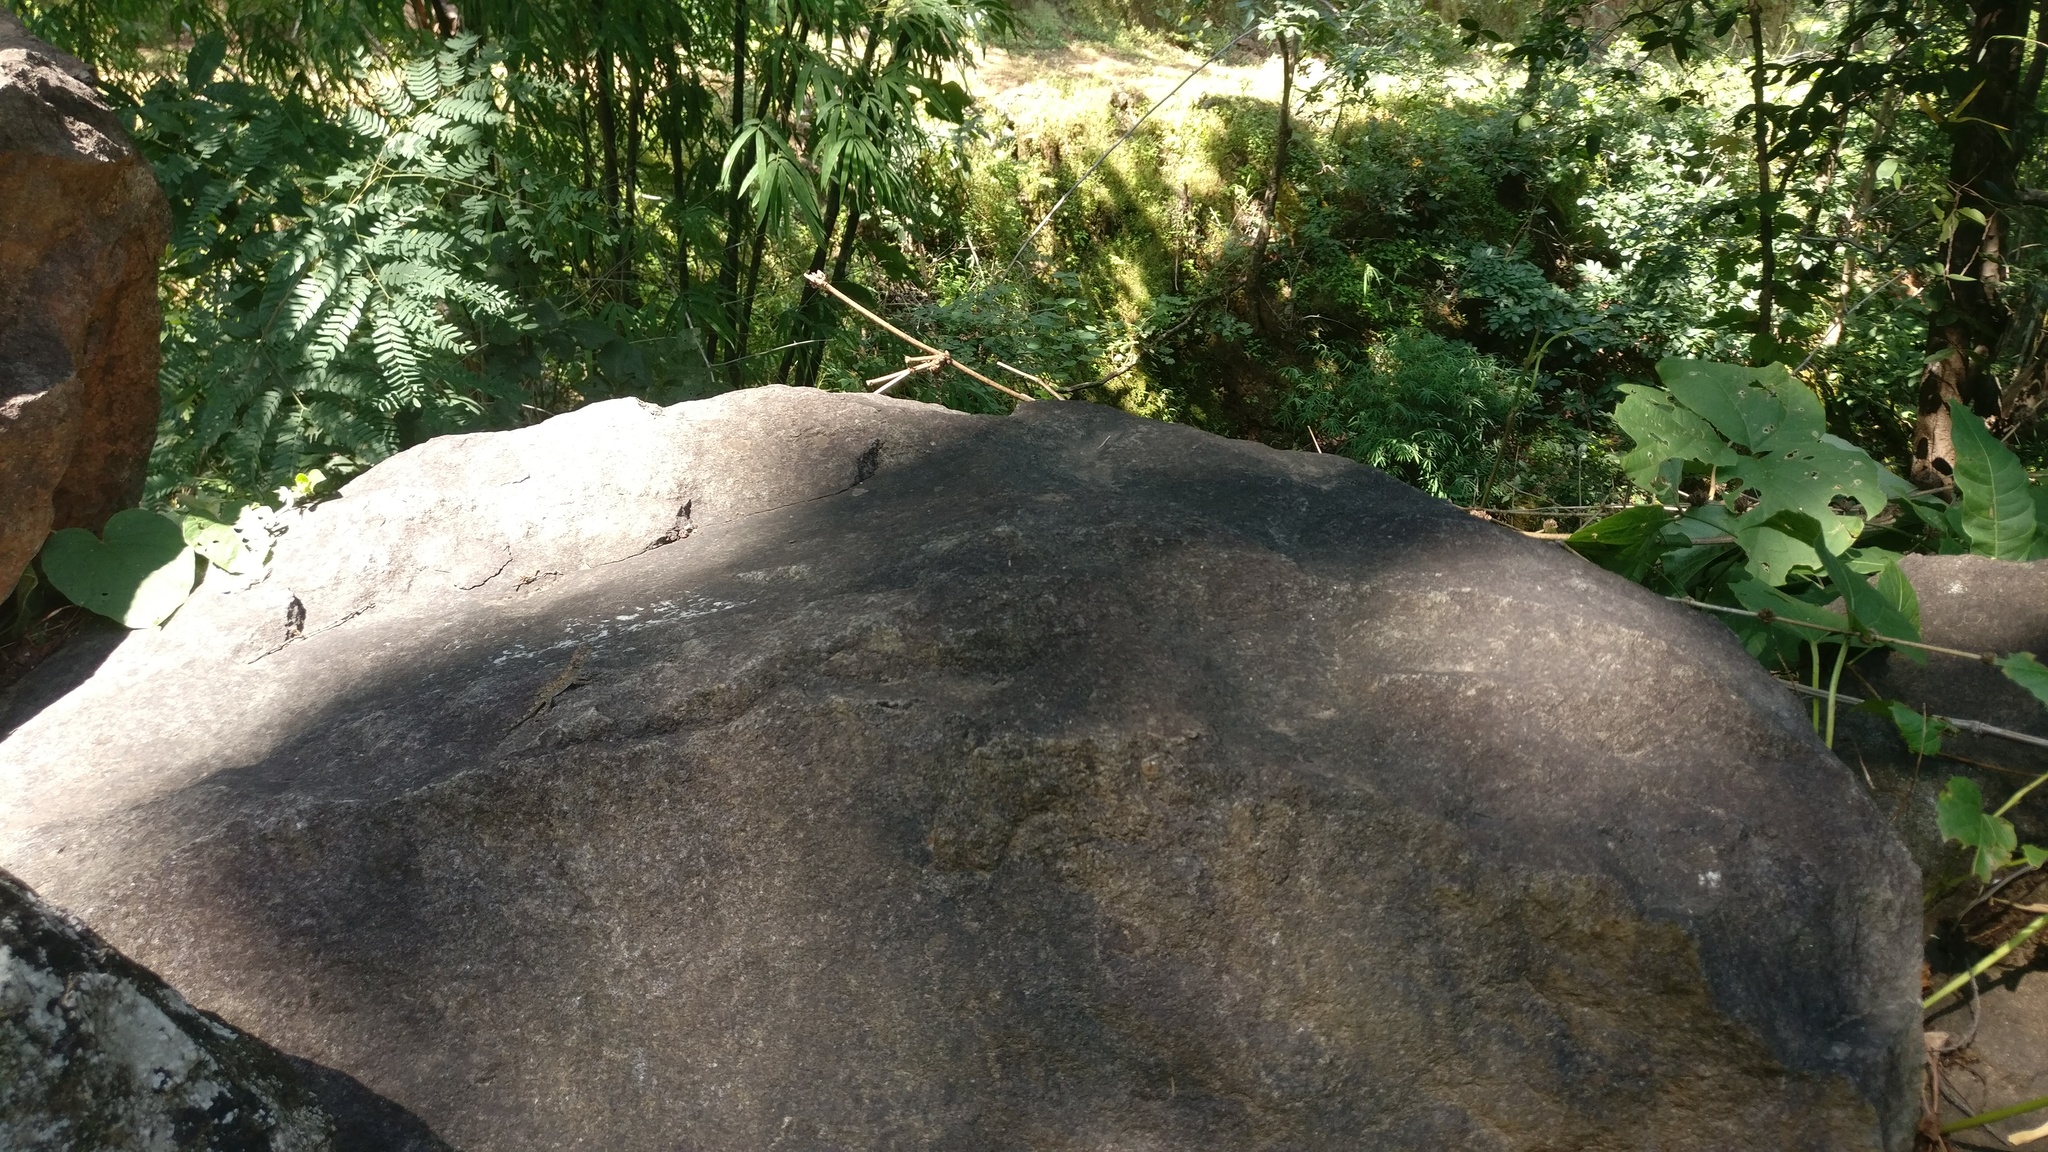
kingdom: Animalia
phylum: Chordata
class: Squamata
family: Agamidae
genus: Psammophilus
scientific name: Psammophilus dorsalis
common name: South indian rock agama
